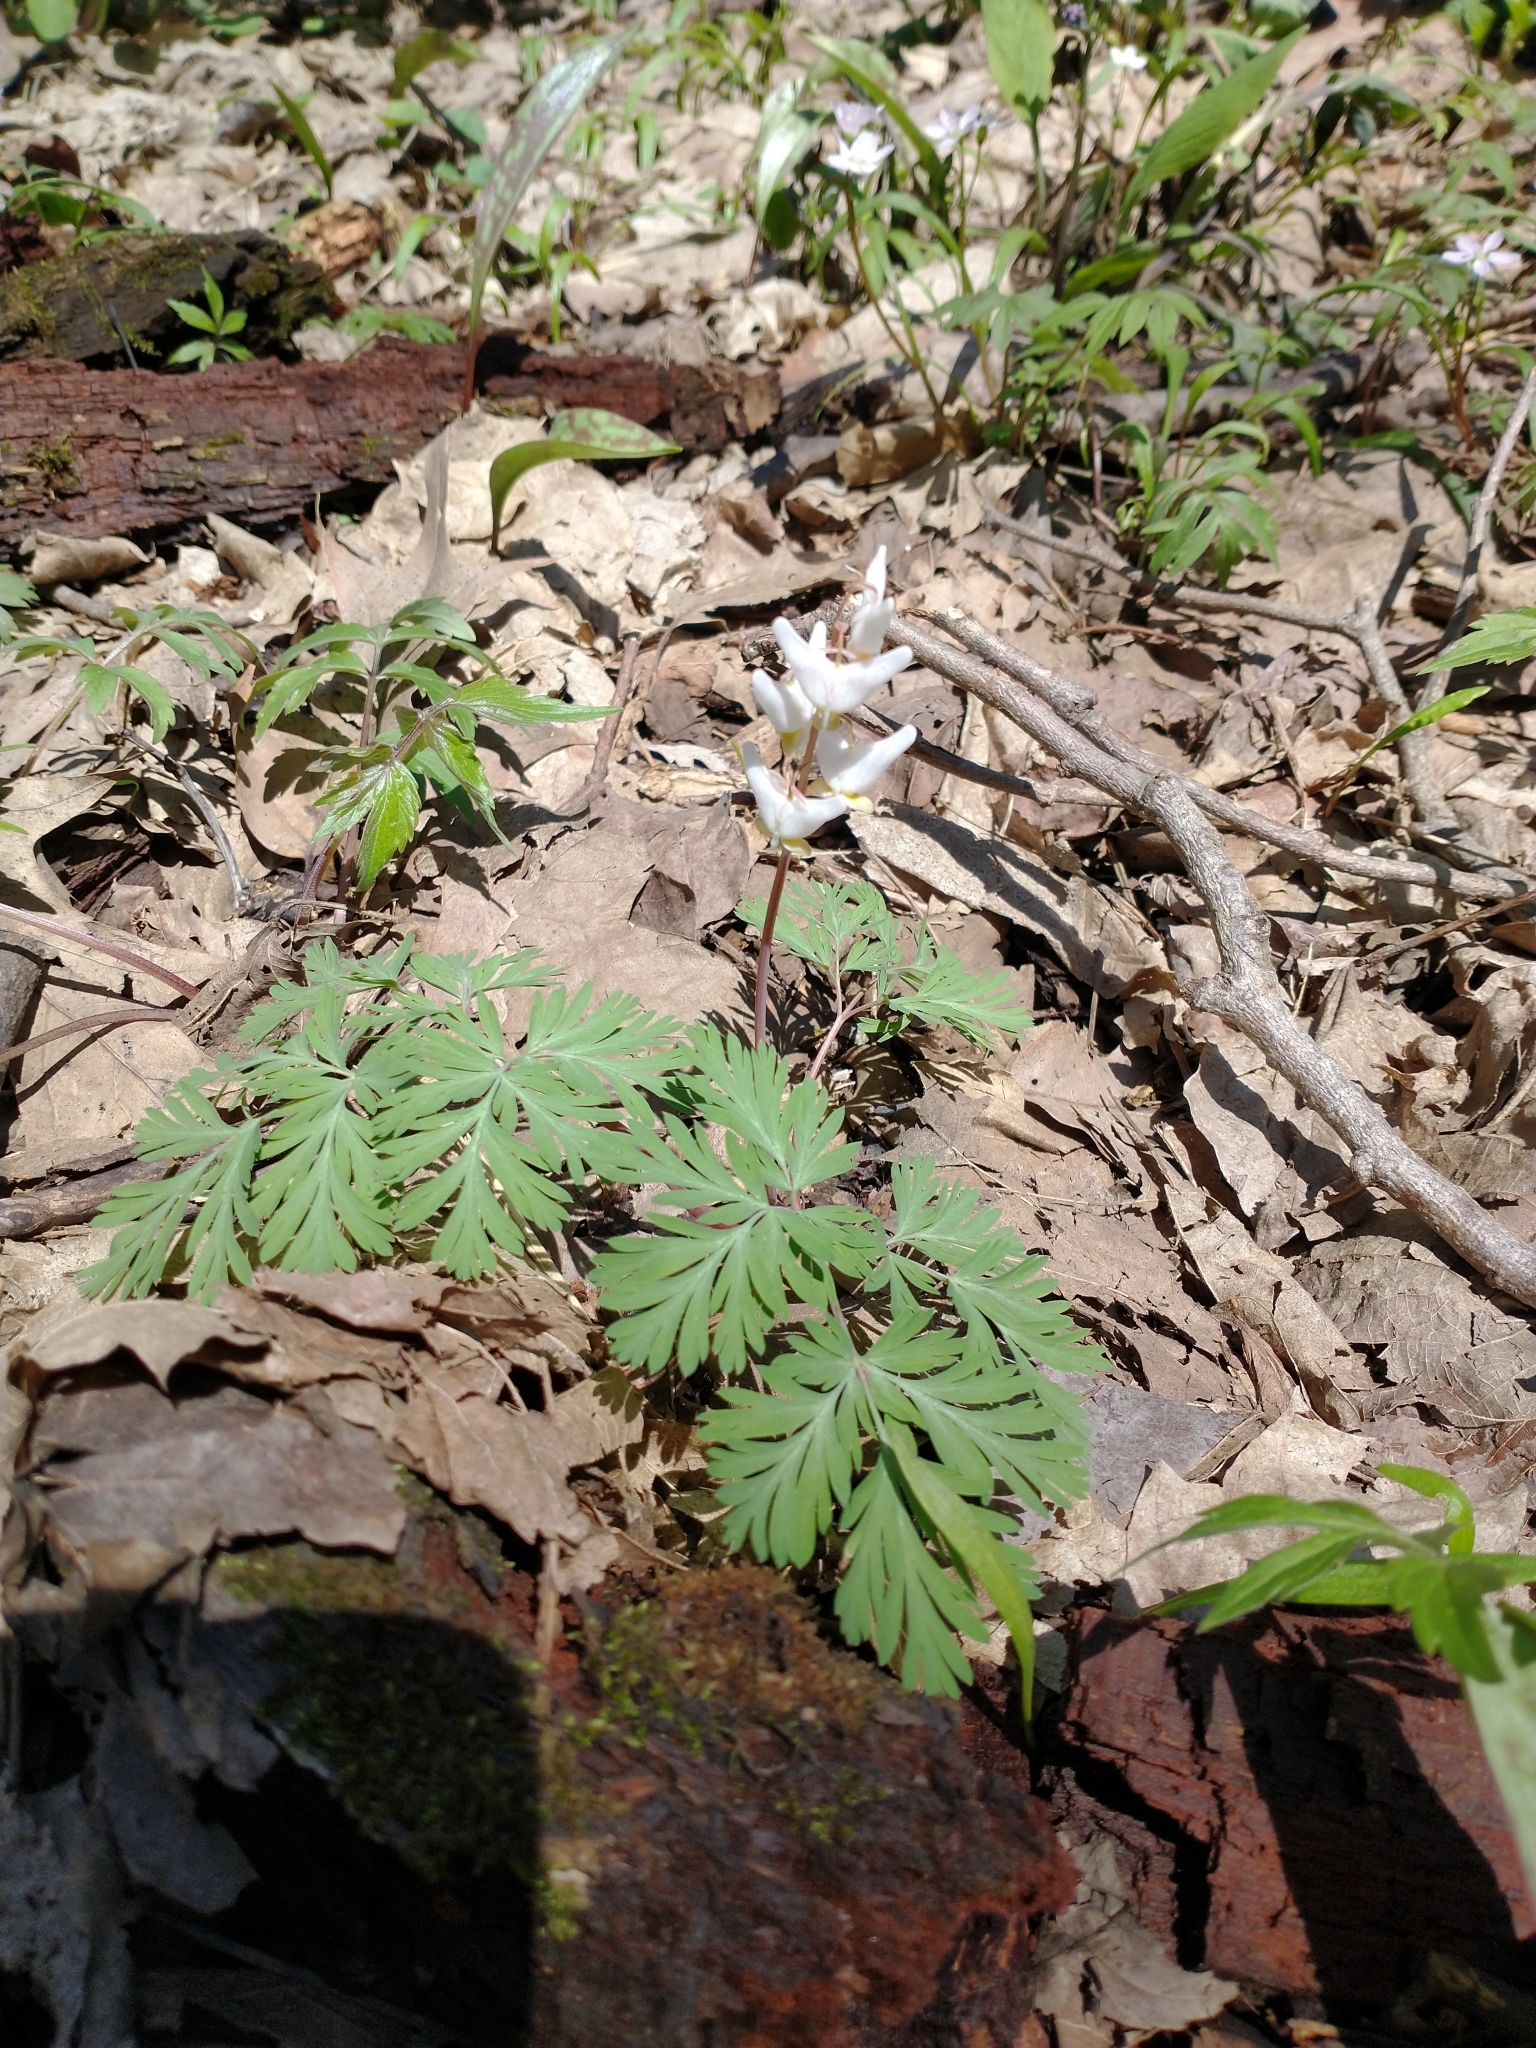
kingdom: Plantae
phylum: Tracheophyta
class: Magnoliopsida
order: Ranunculales
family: Papaveraceae
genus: Dicentra
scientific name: Dicentra cucullaria
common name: Dutchman's breeches
